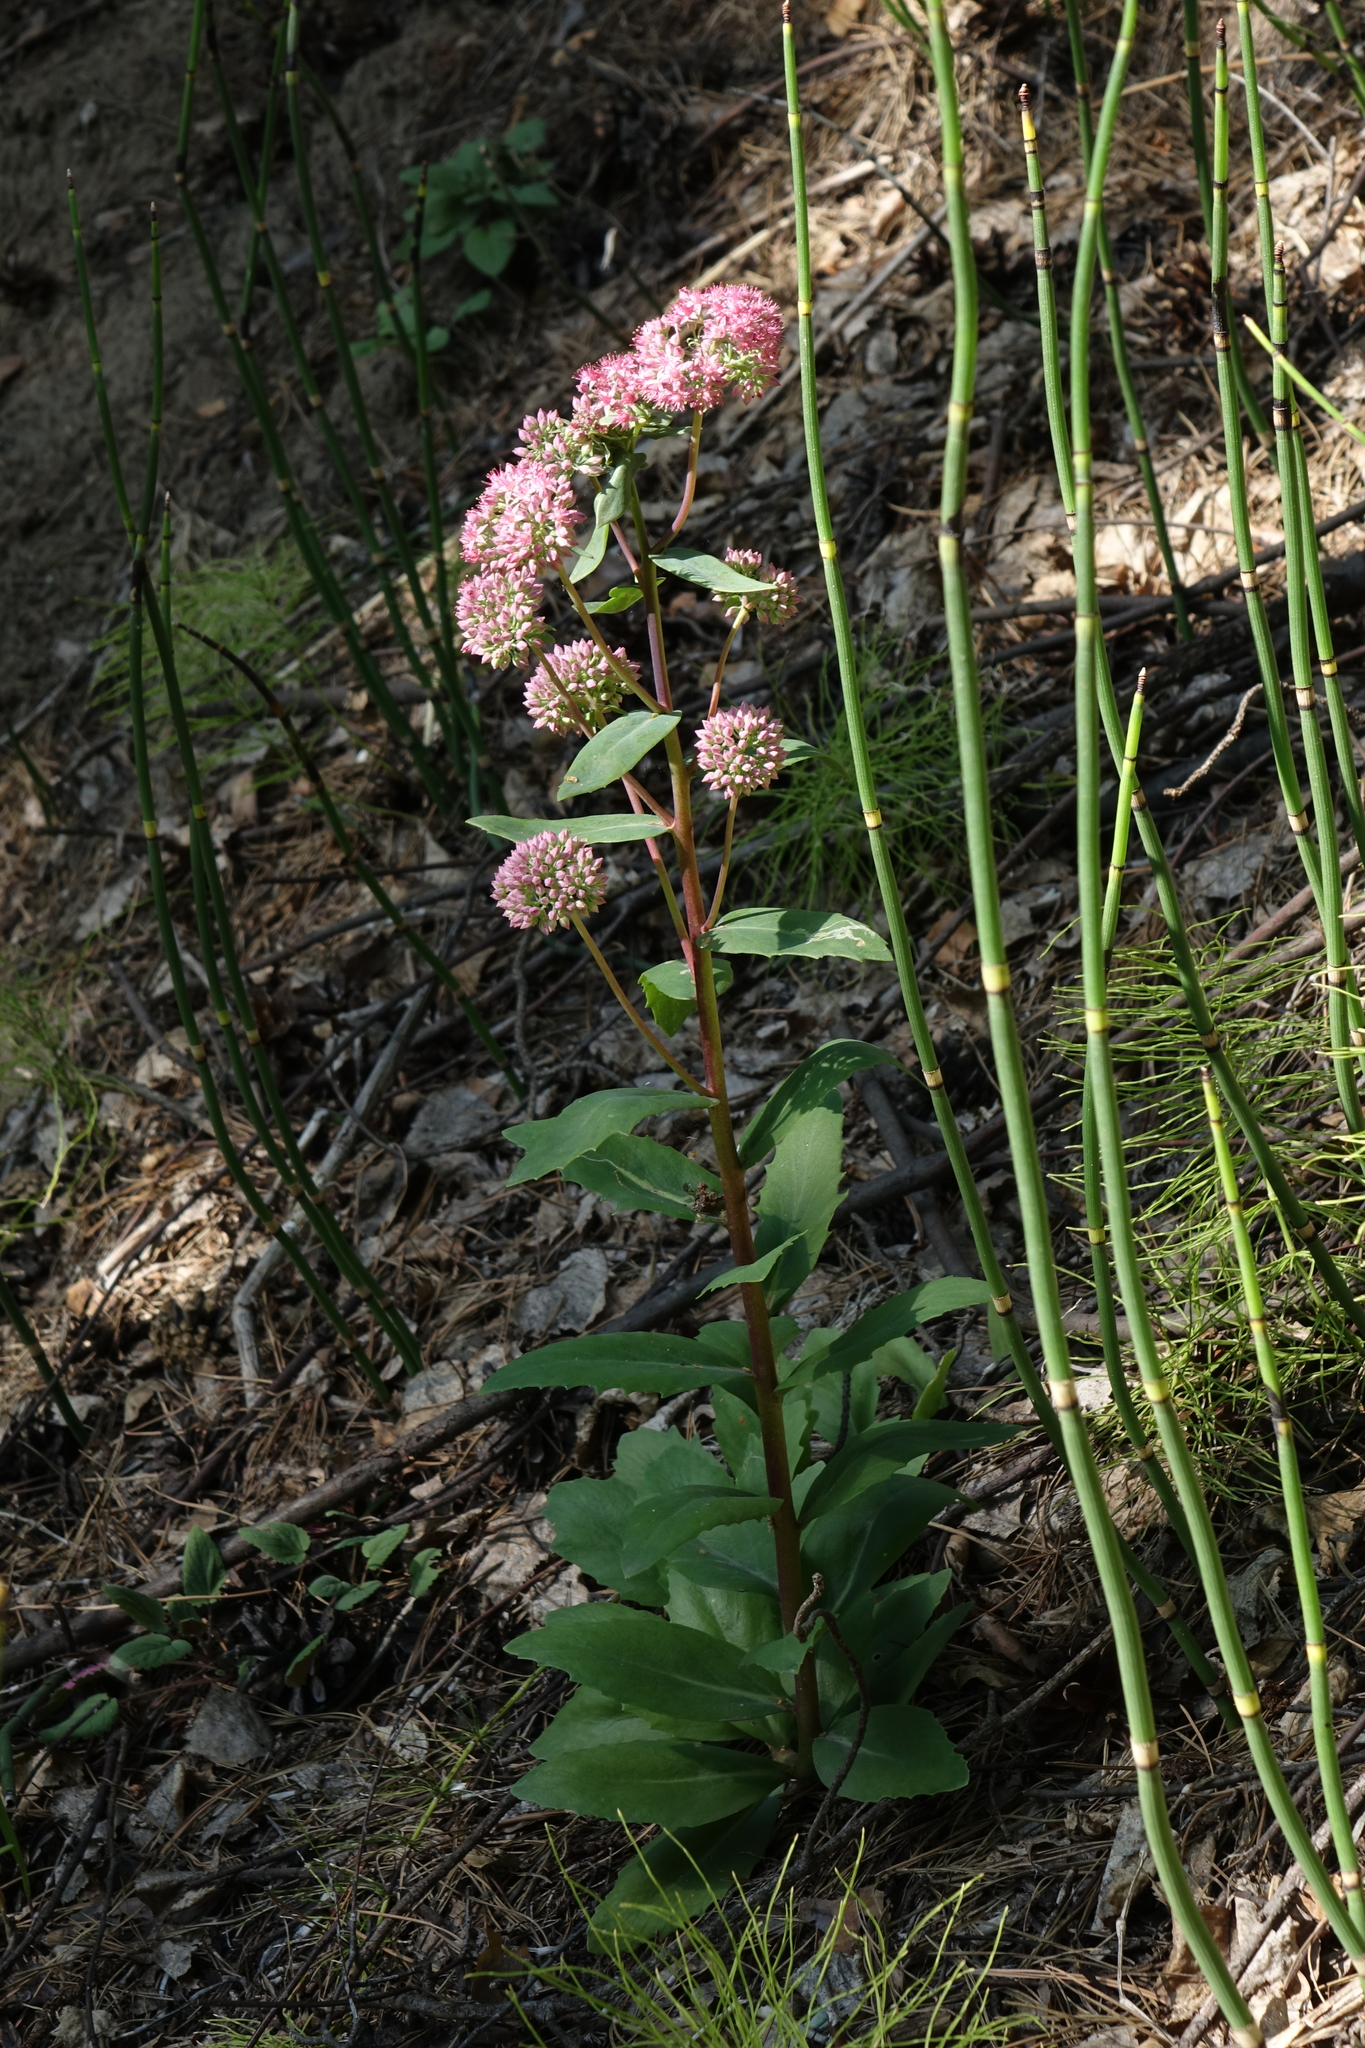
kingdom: Plantae
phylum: Tracheophyta
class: Polypodiopsida
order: Equisetales
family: Equisetaceae
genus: Equisetum
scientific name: Equisetum hyemale
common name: Rough horsetail
